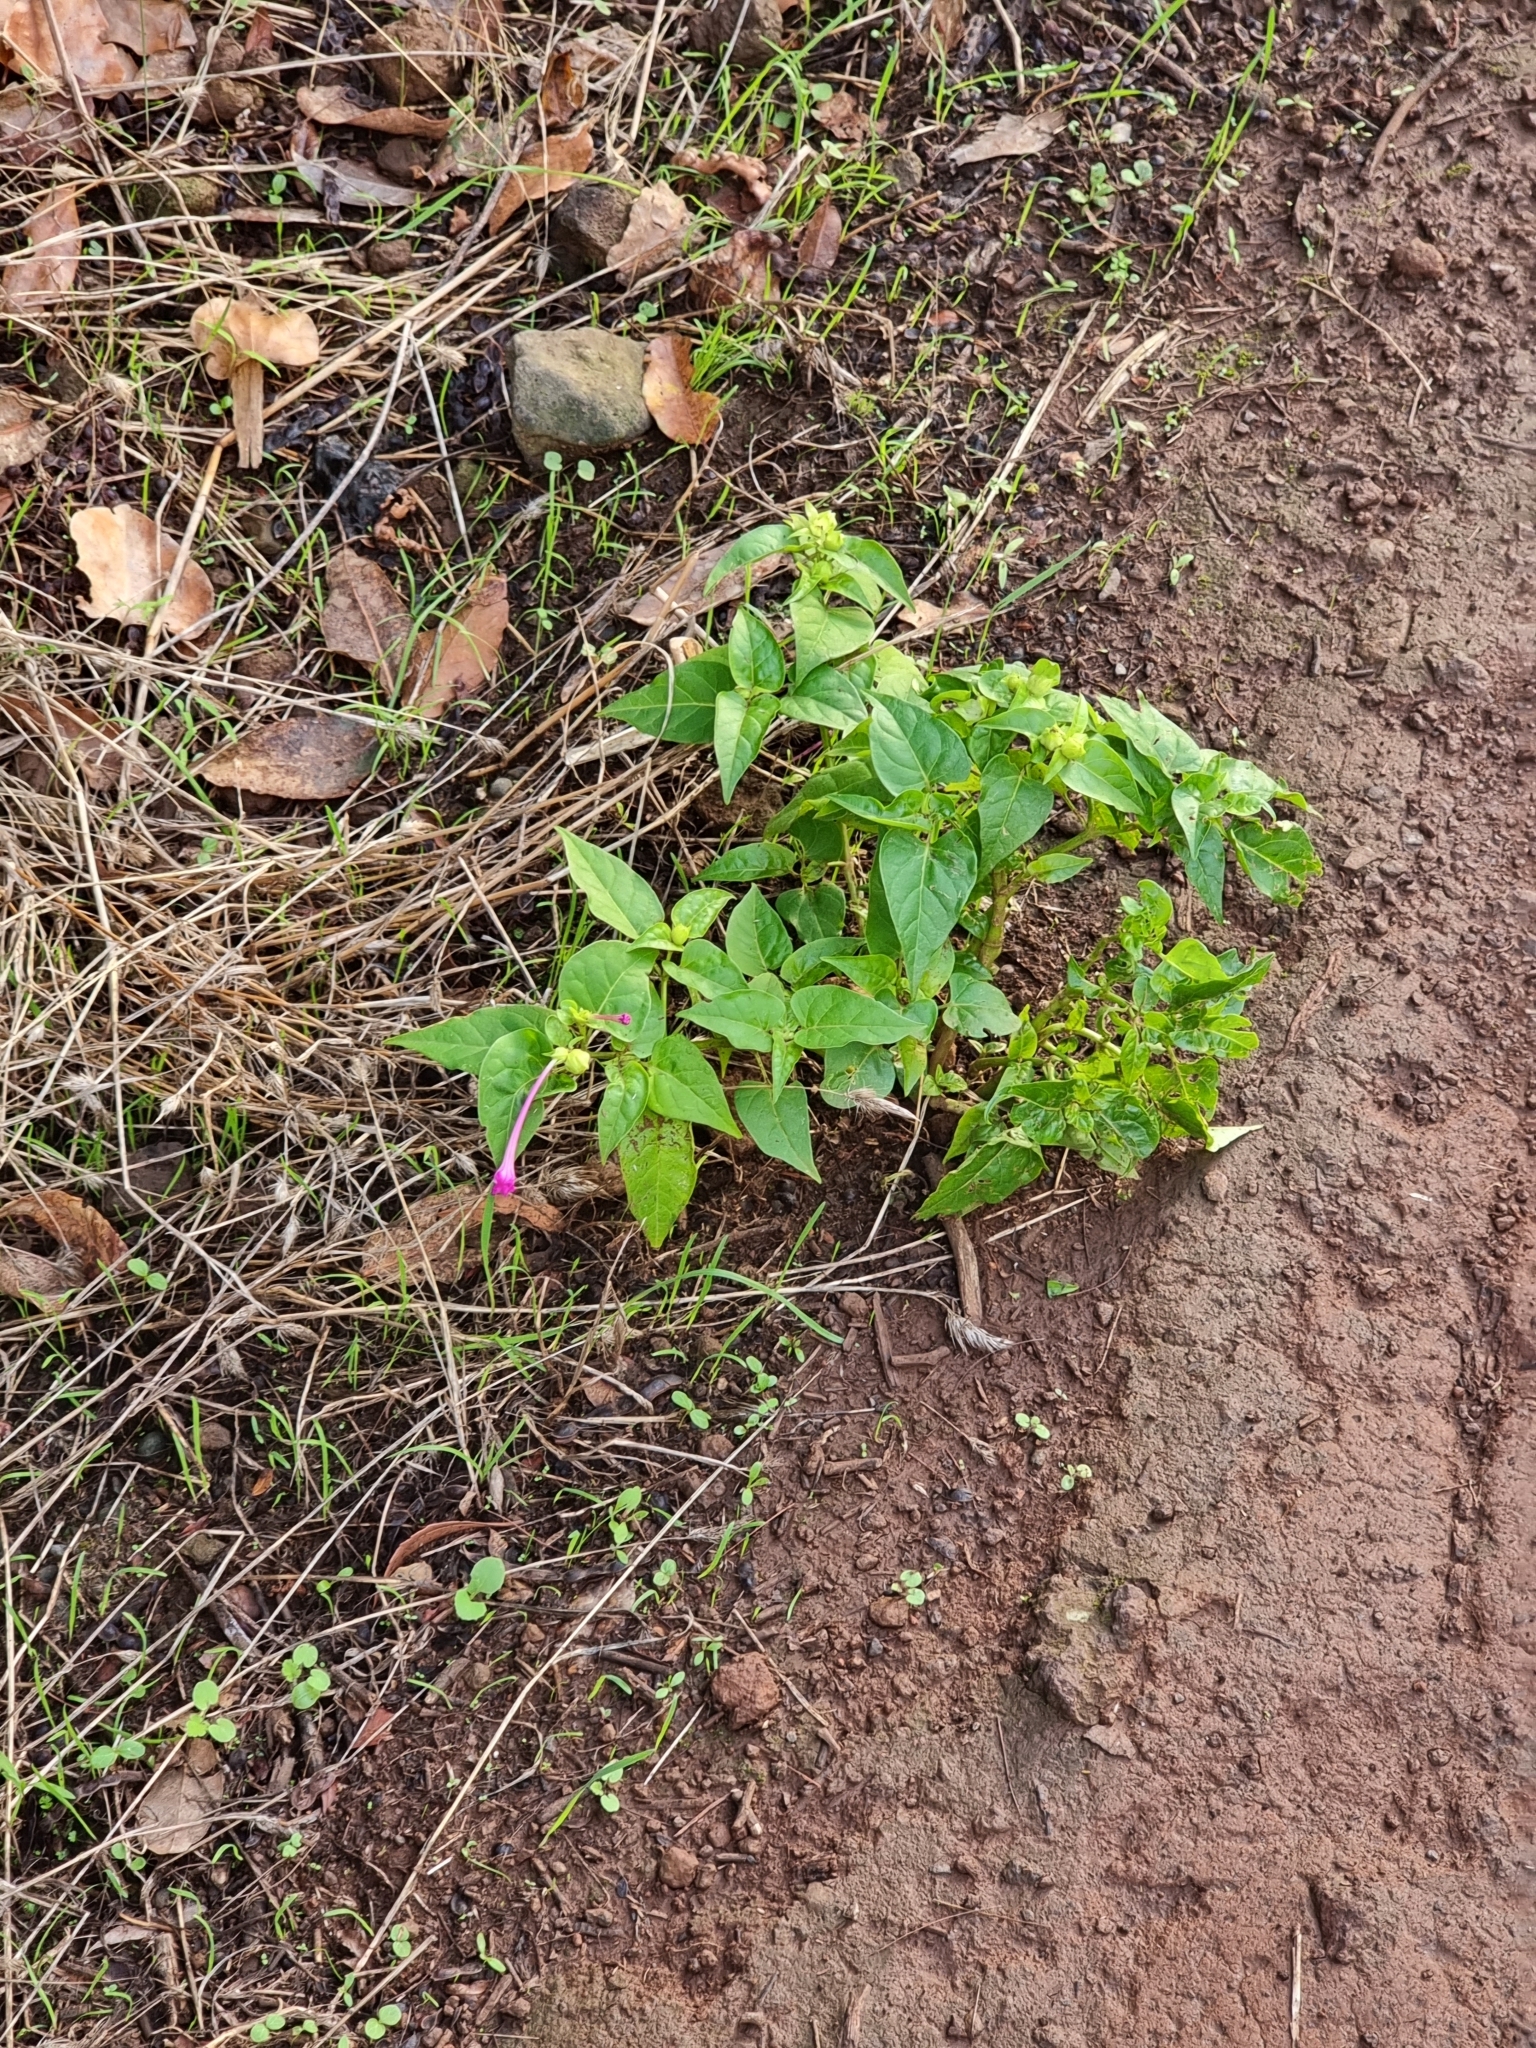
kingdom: Plantae
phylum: Tracheophyta
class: Magnoliopsida
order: Caryophyllales
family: Nyctaginaceae
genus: Mirabilis
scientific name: Mirabilis jalapa
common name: Marvel-of-peru
